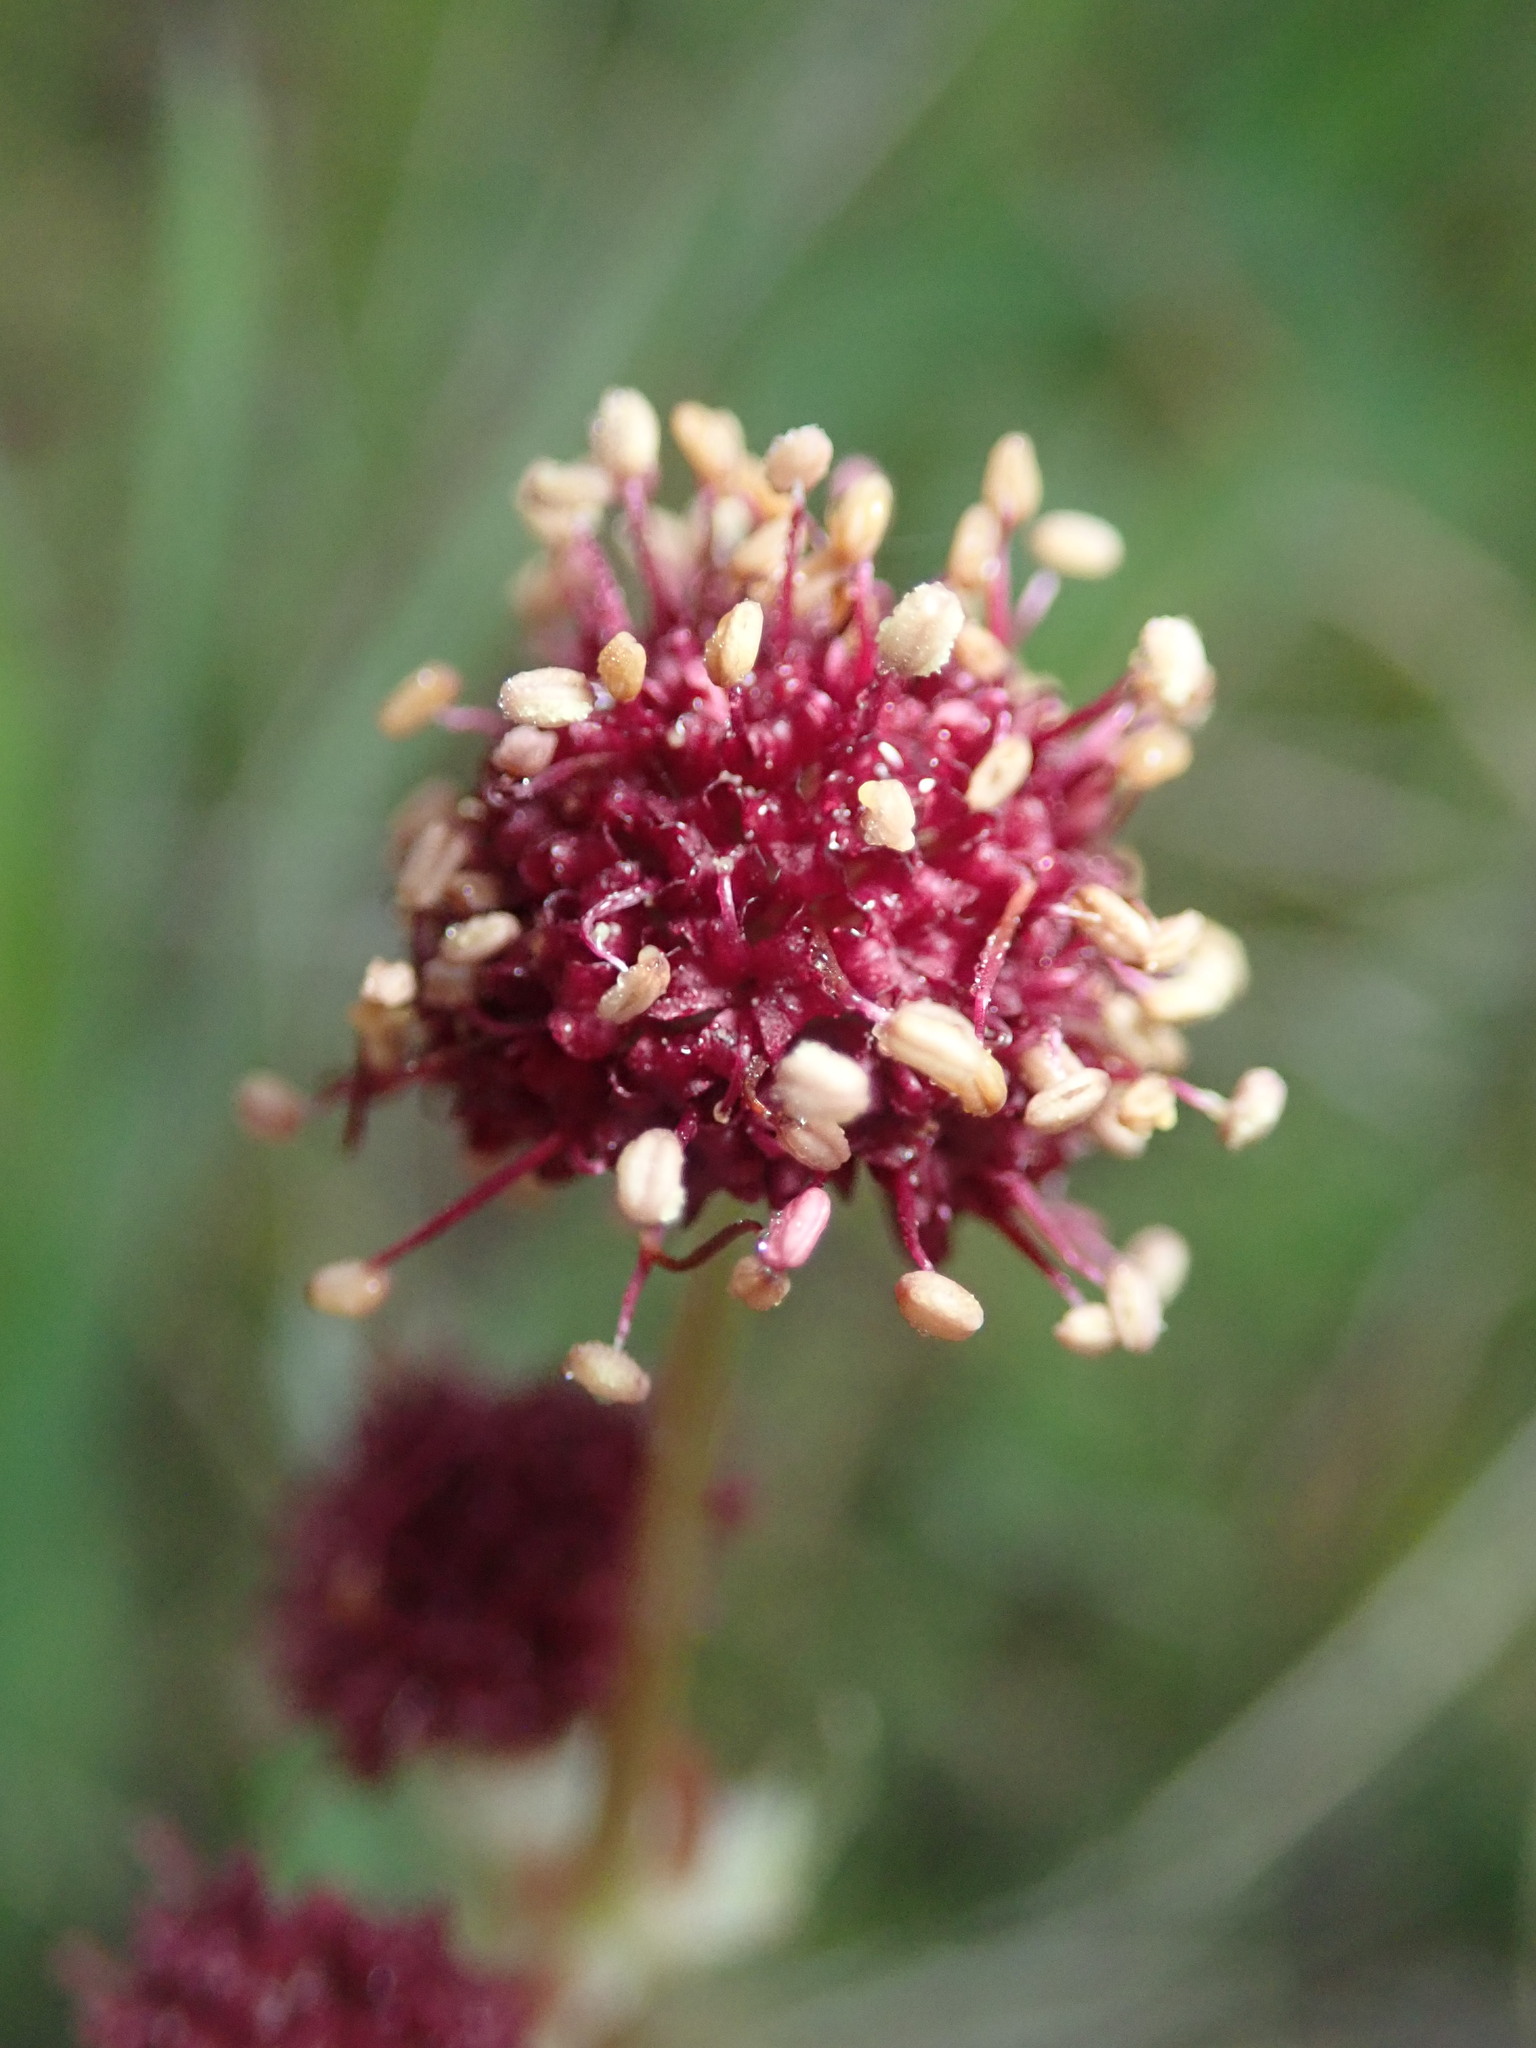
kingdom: Plantae
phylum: Tracheophyta
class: Magnoliopsida
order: Apiales
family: Apiaceae
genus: Sanicula
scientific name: Sanicula bipinnatifida
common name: Shoe-buttons
